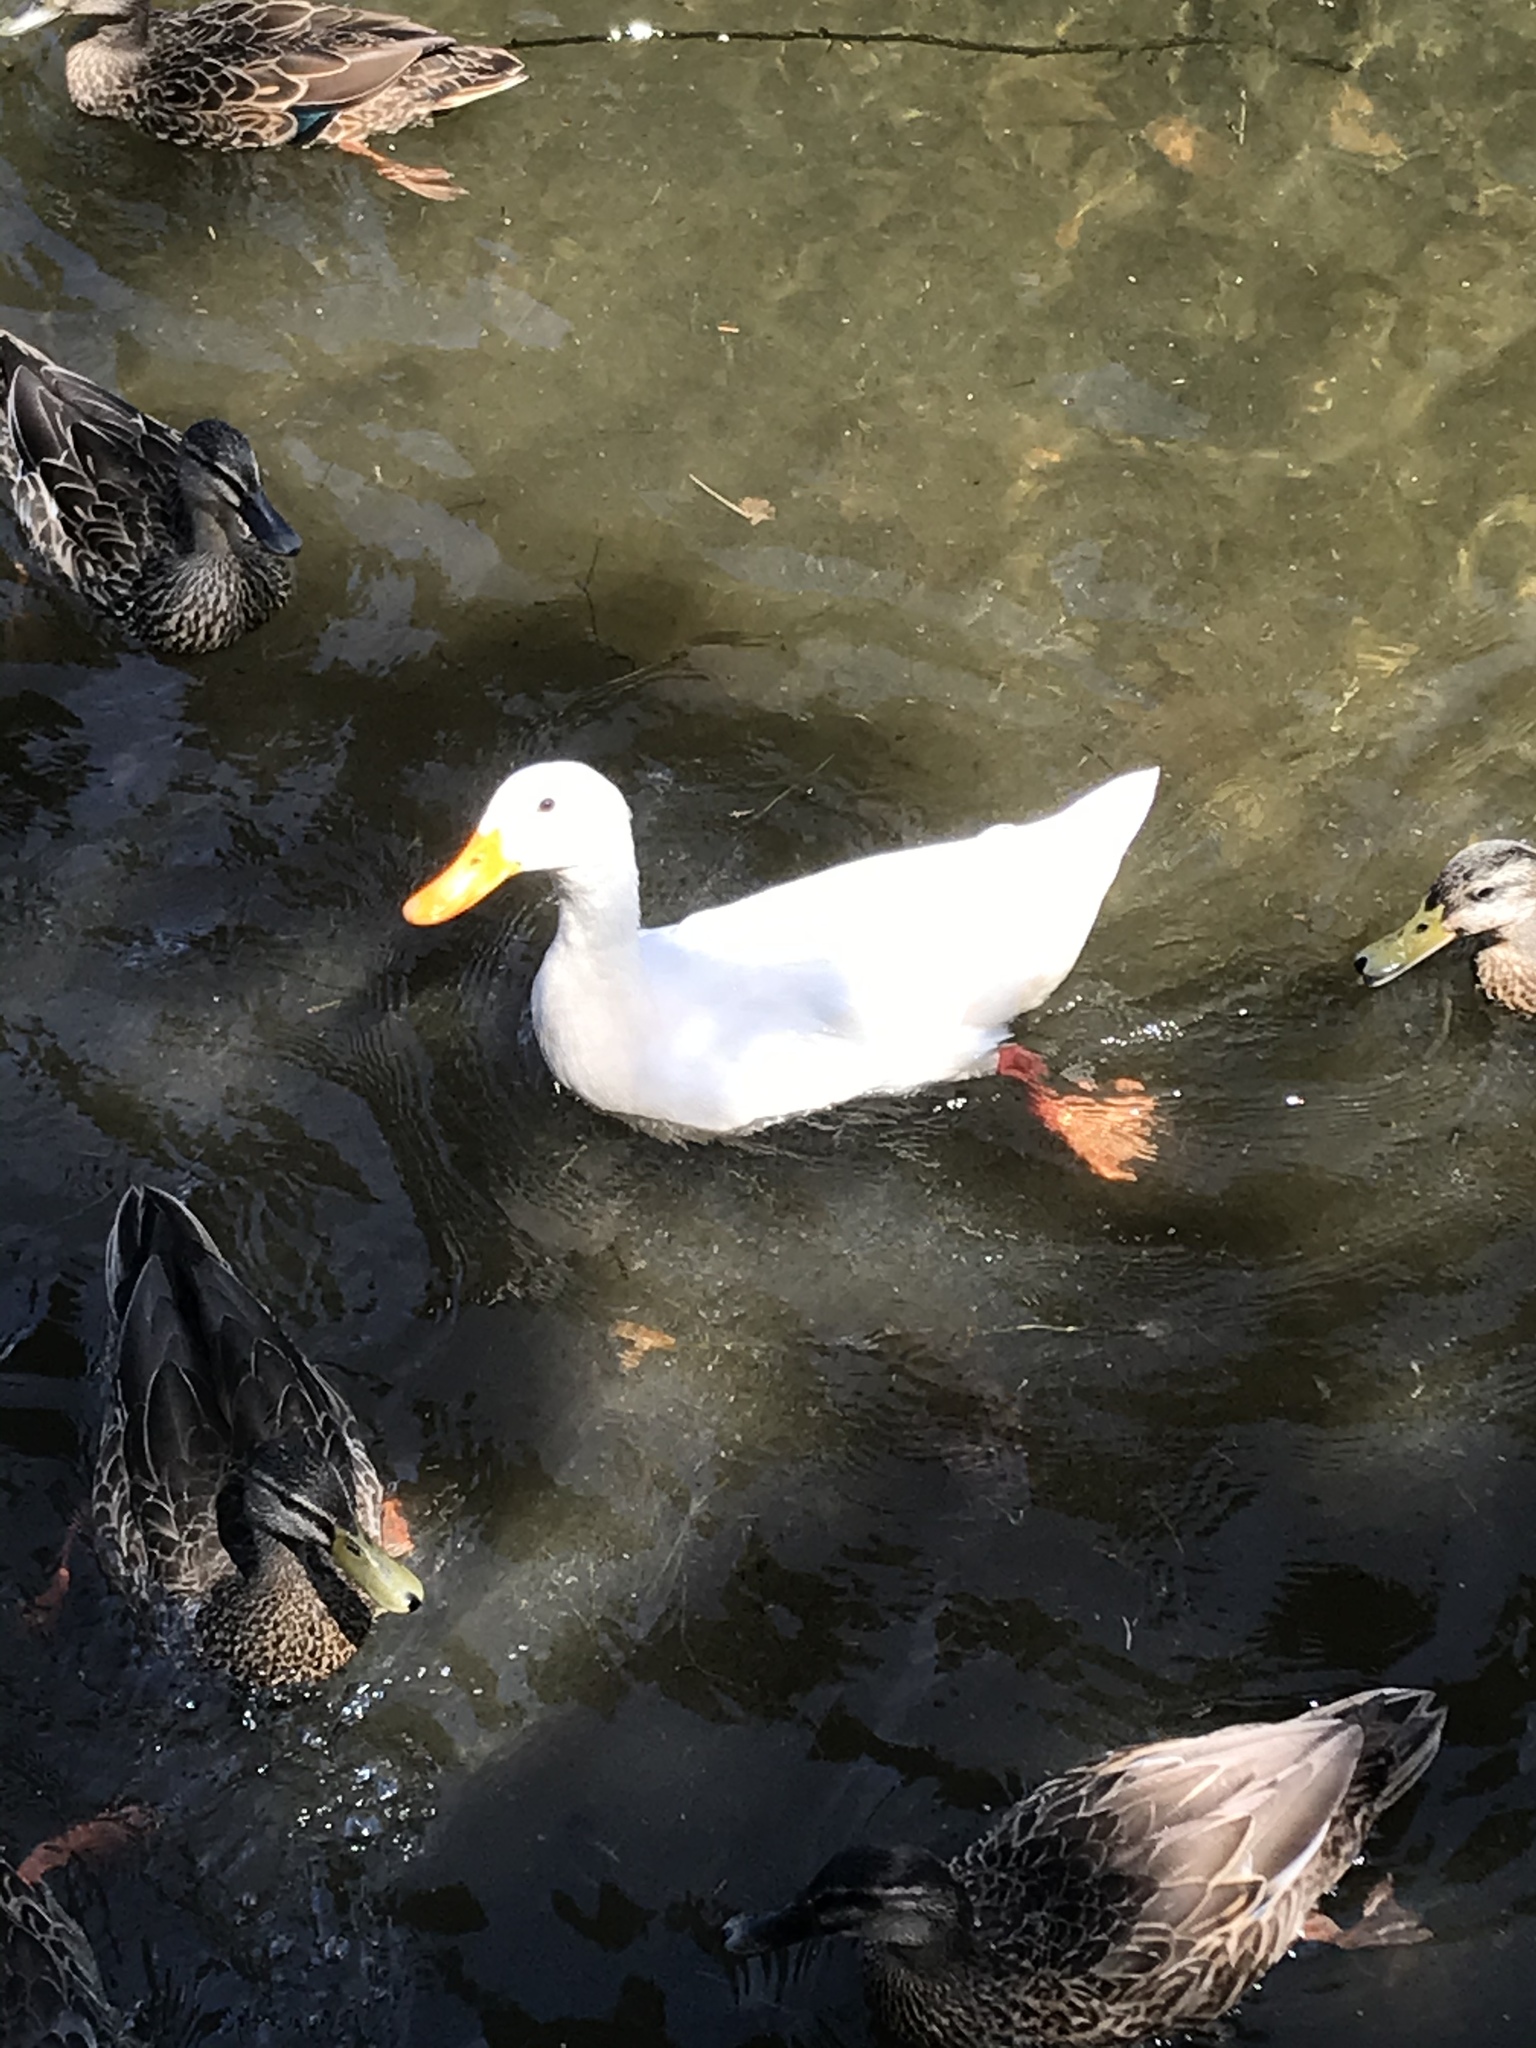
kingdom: Animalia
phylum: Chordata
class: Aves
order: Anseriformes
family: Anatidae
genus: Anas
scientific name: Anas platyrhynchos
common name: Mallard
